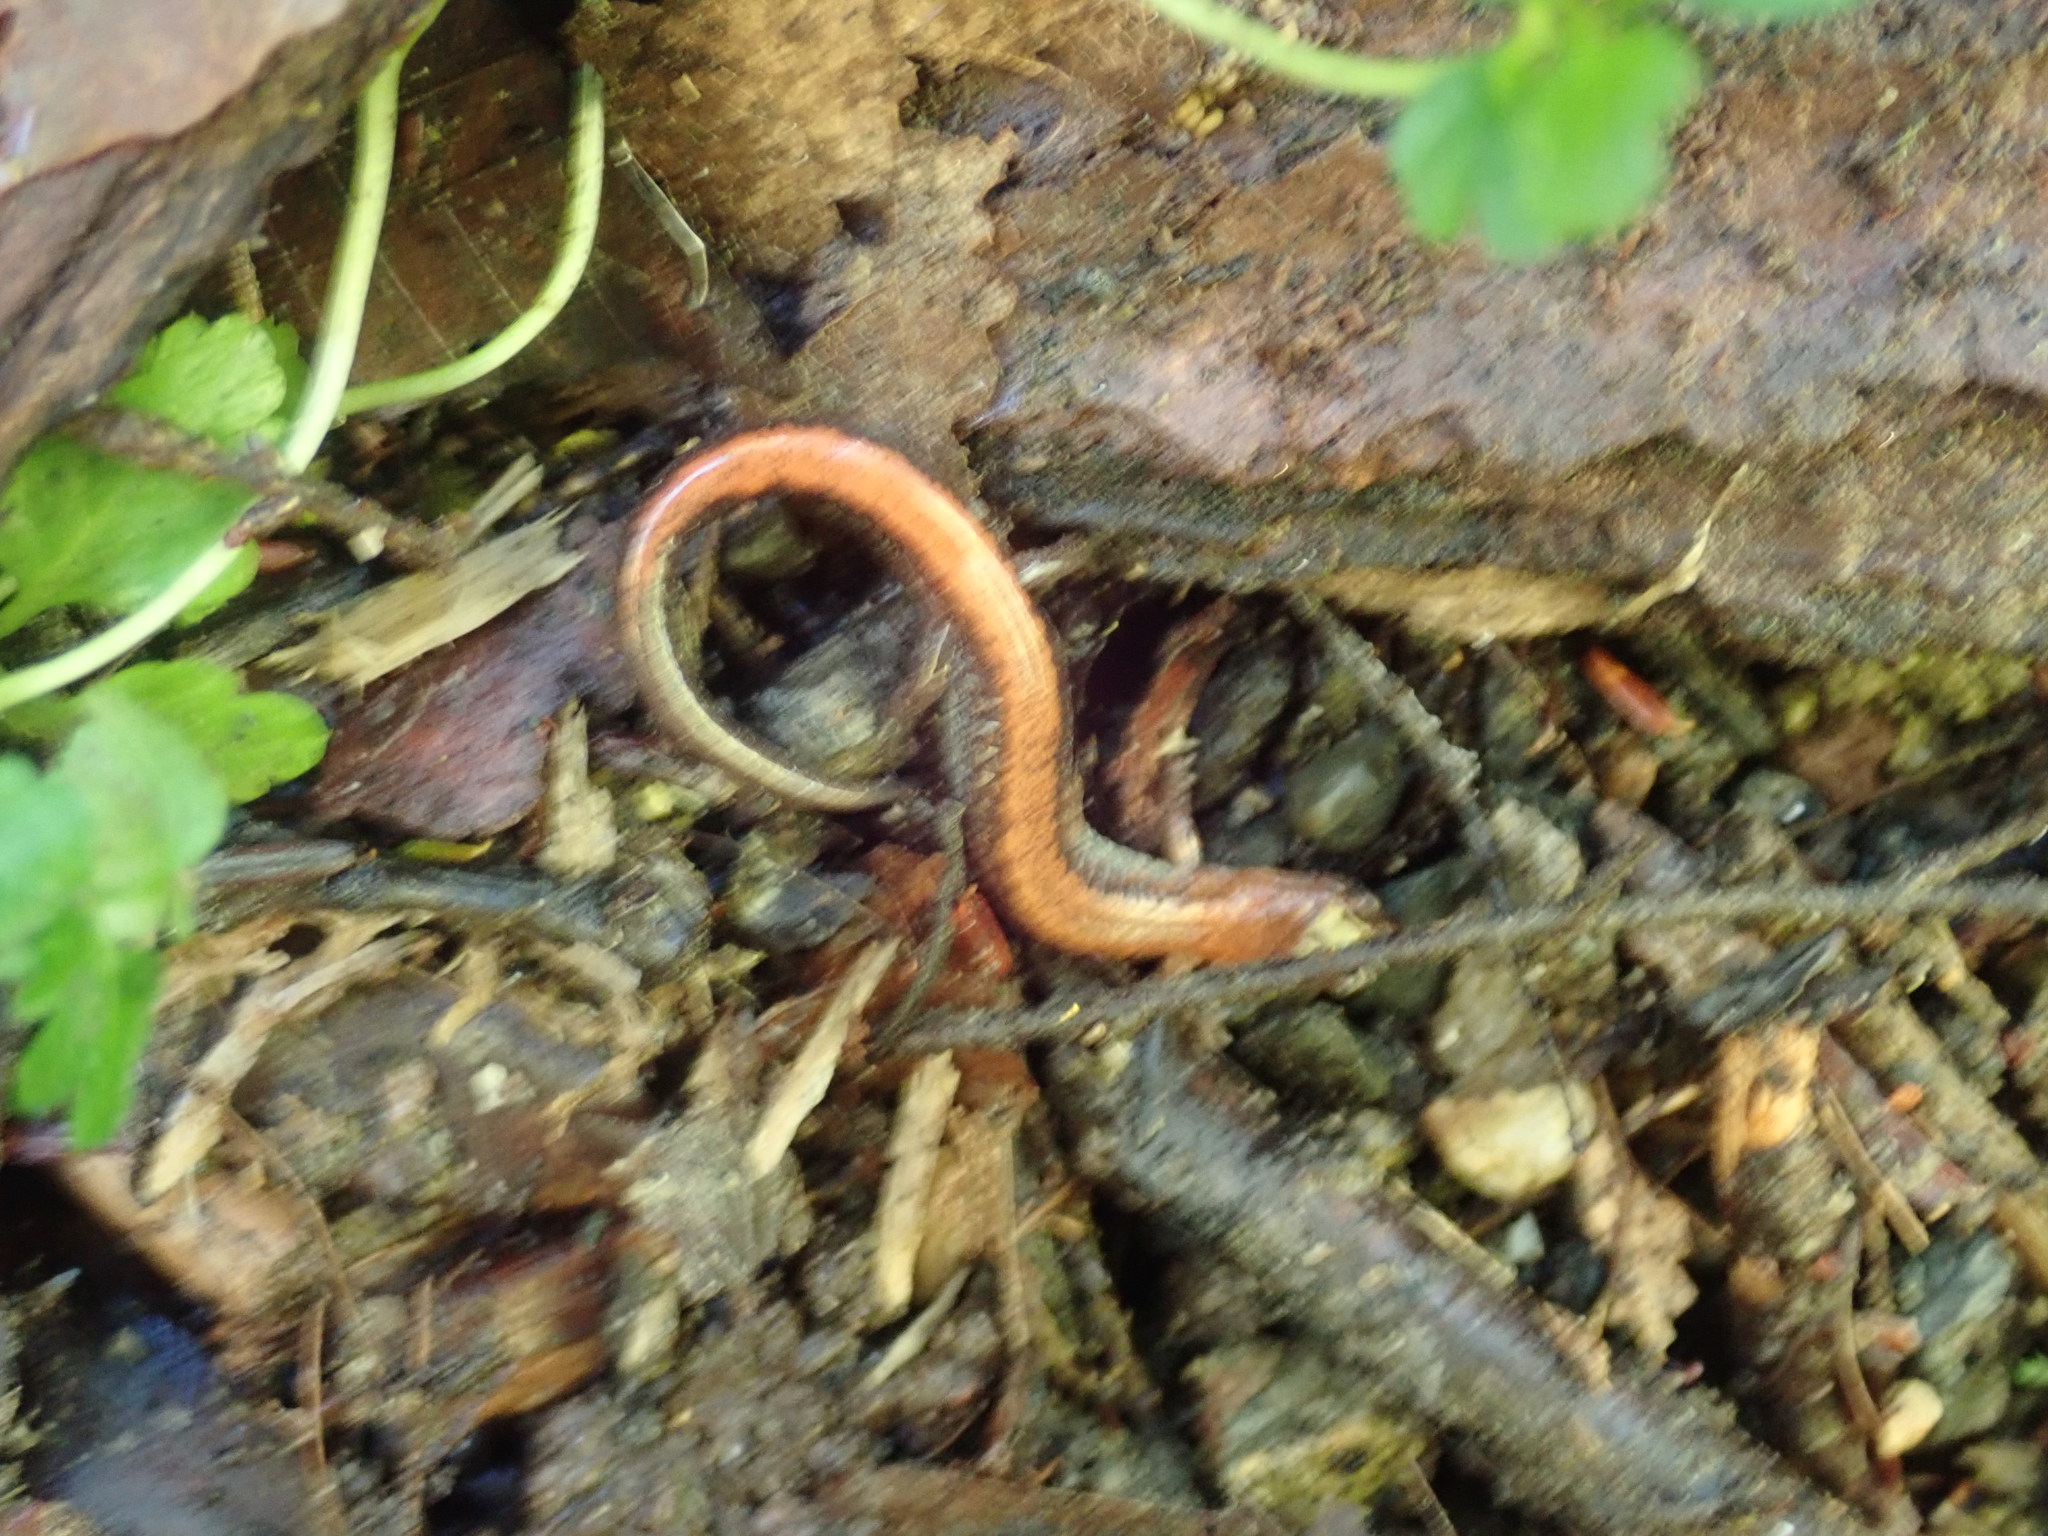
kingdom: Animalia
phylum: Chordata
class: Amphibia
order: Caudata
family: Plethodontidae
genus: Plethodon
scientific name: Plethodon cinereus
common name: Redback salamander
